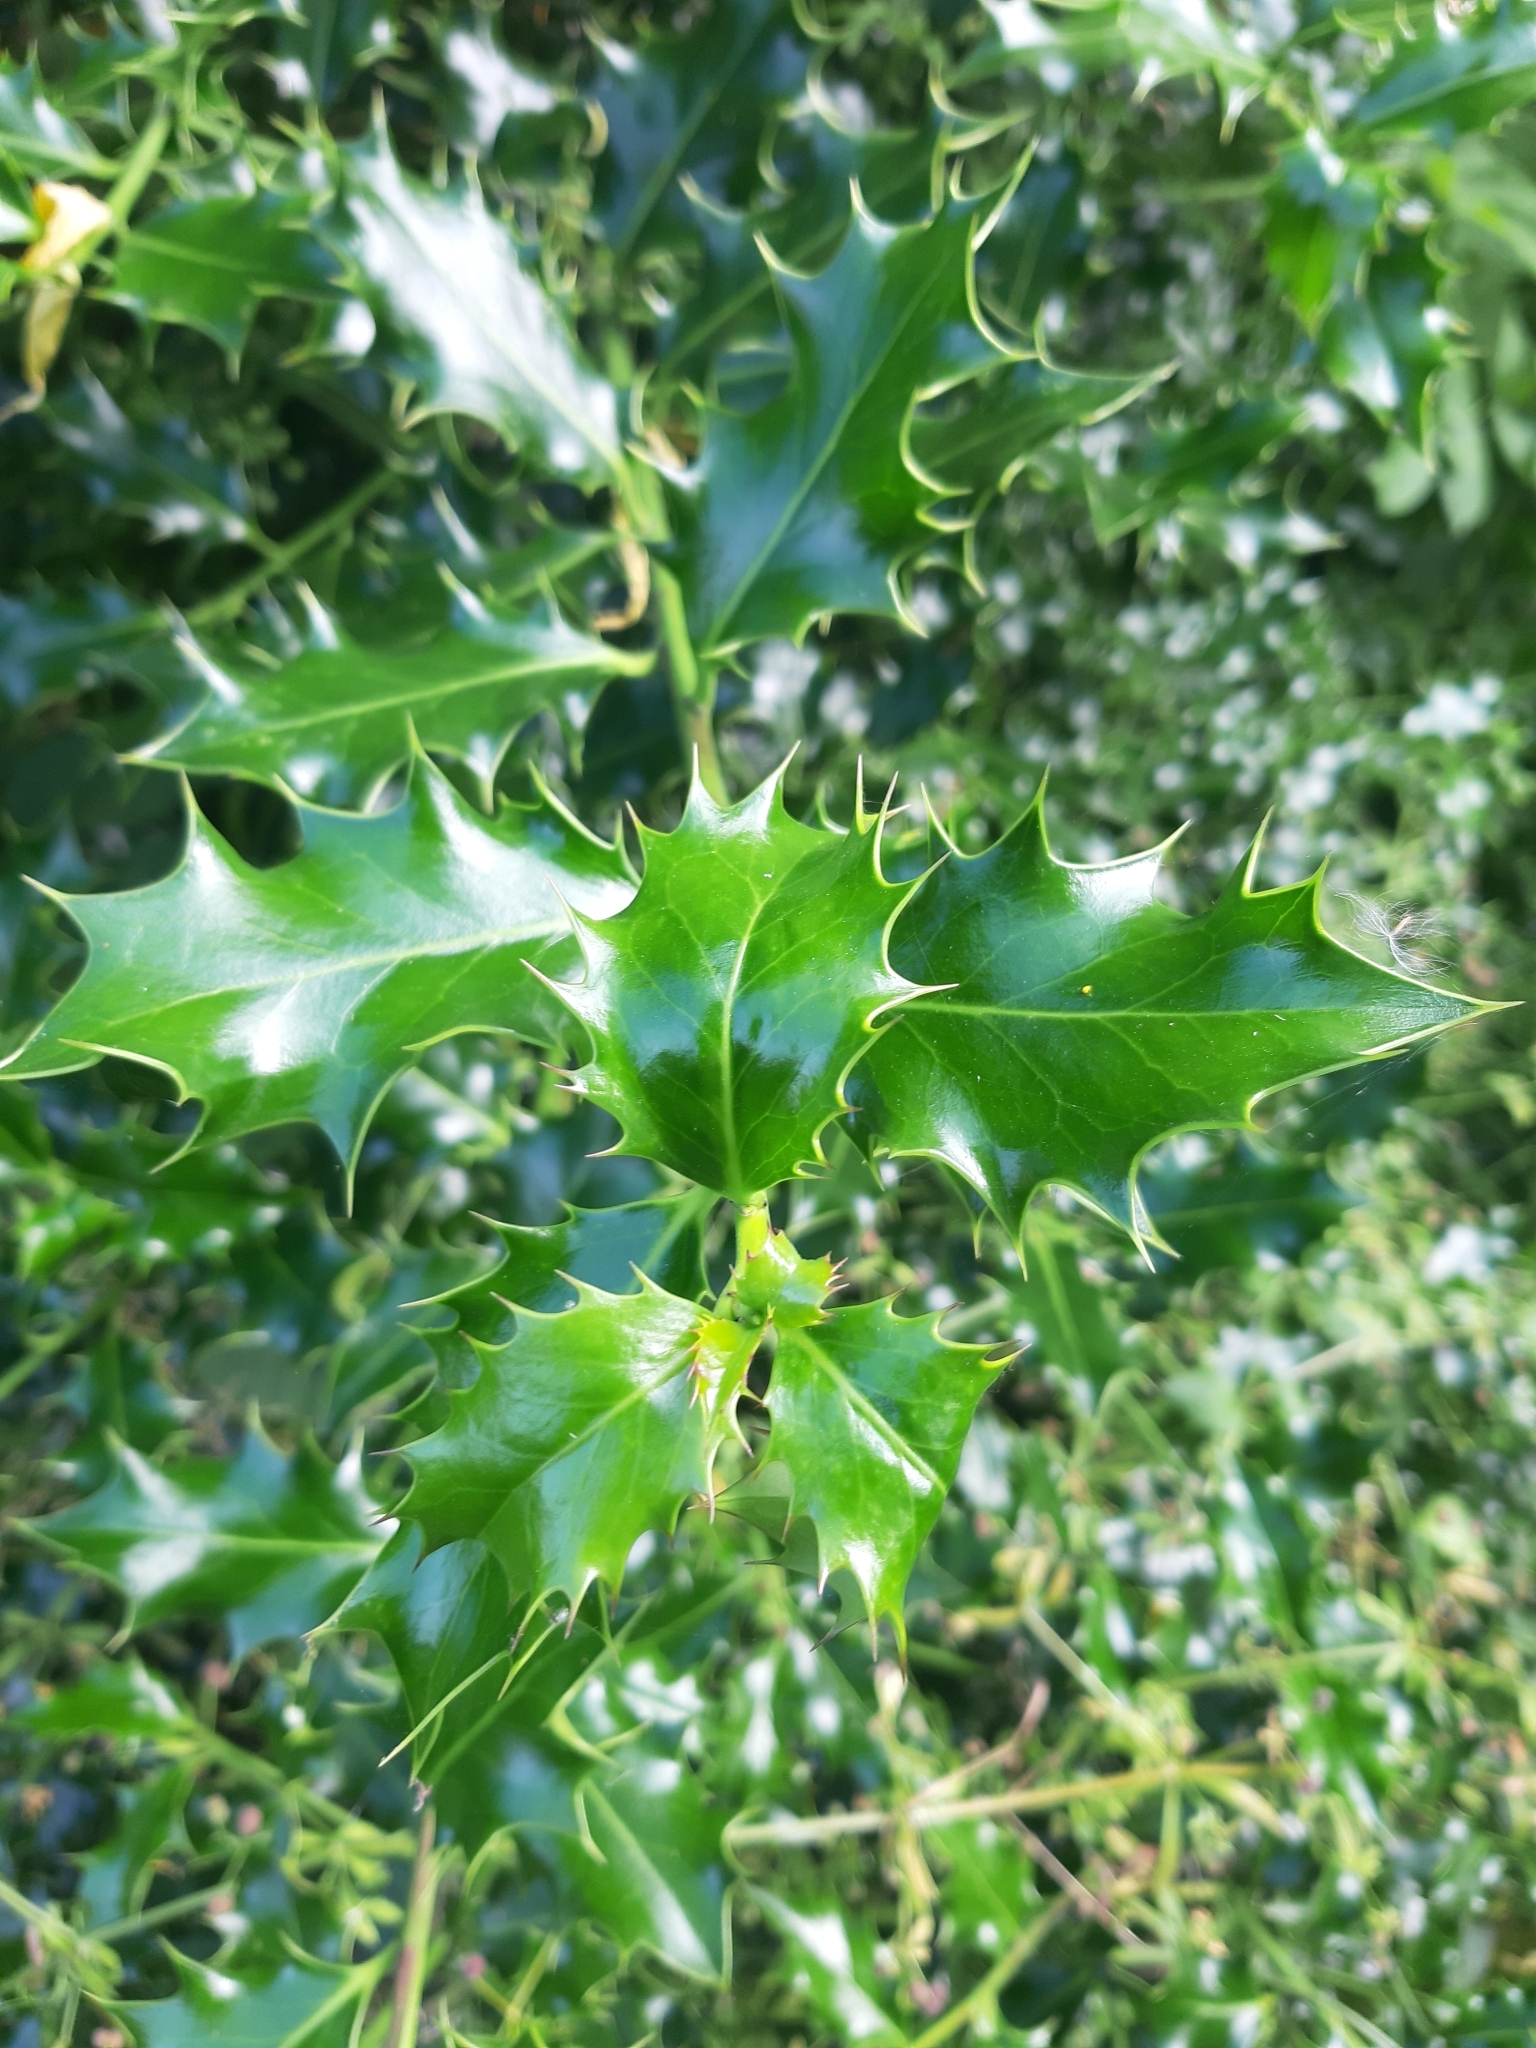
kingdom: Plantae
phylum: Tracheophyta
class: Magnoliopsida
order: Aquifoliales
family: Aquifoliaceae
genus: Ilex
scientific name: Ilex aquifolium
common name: English holly
